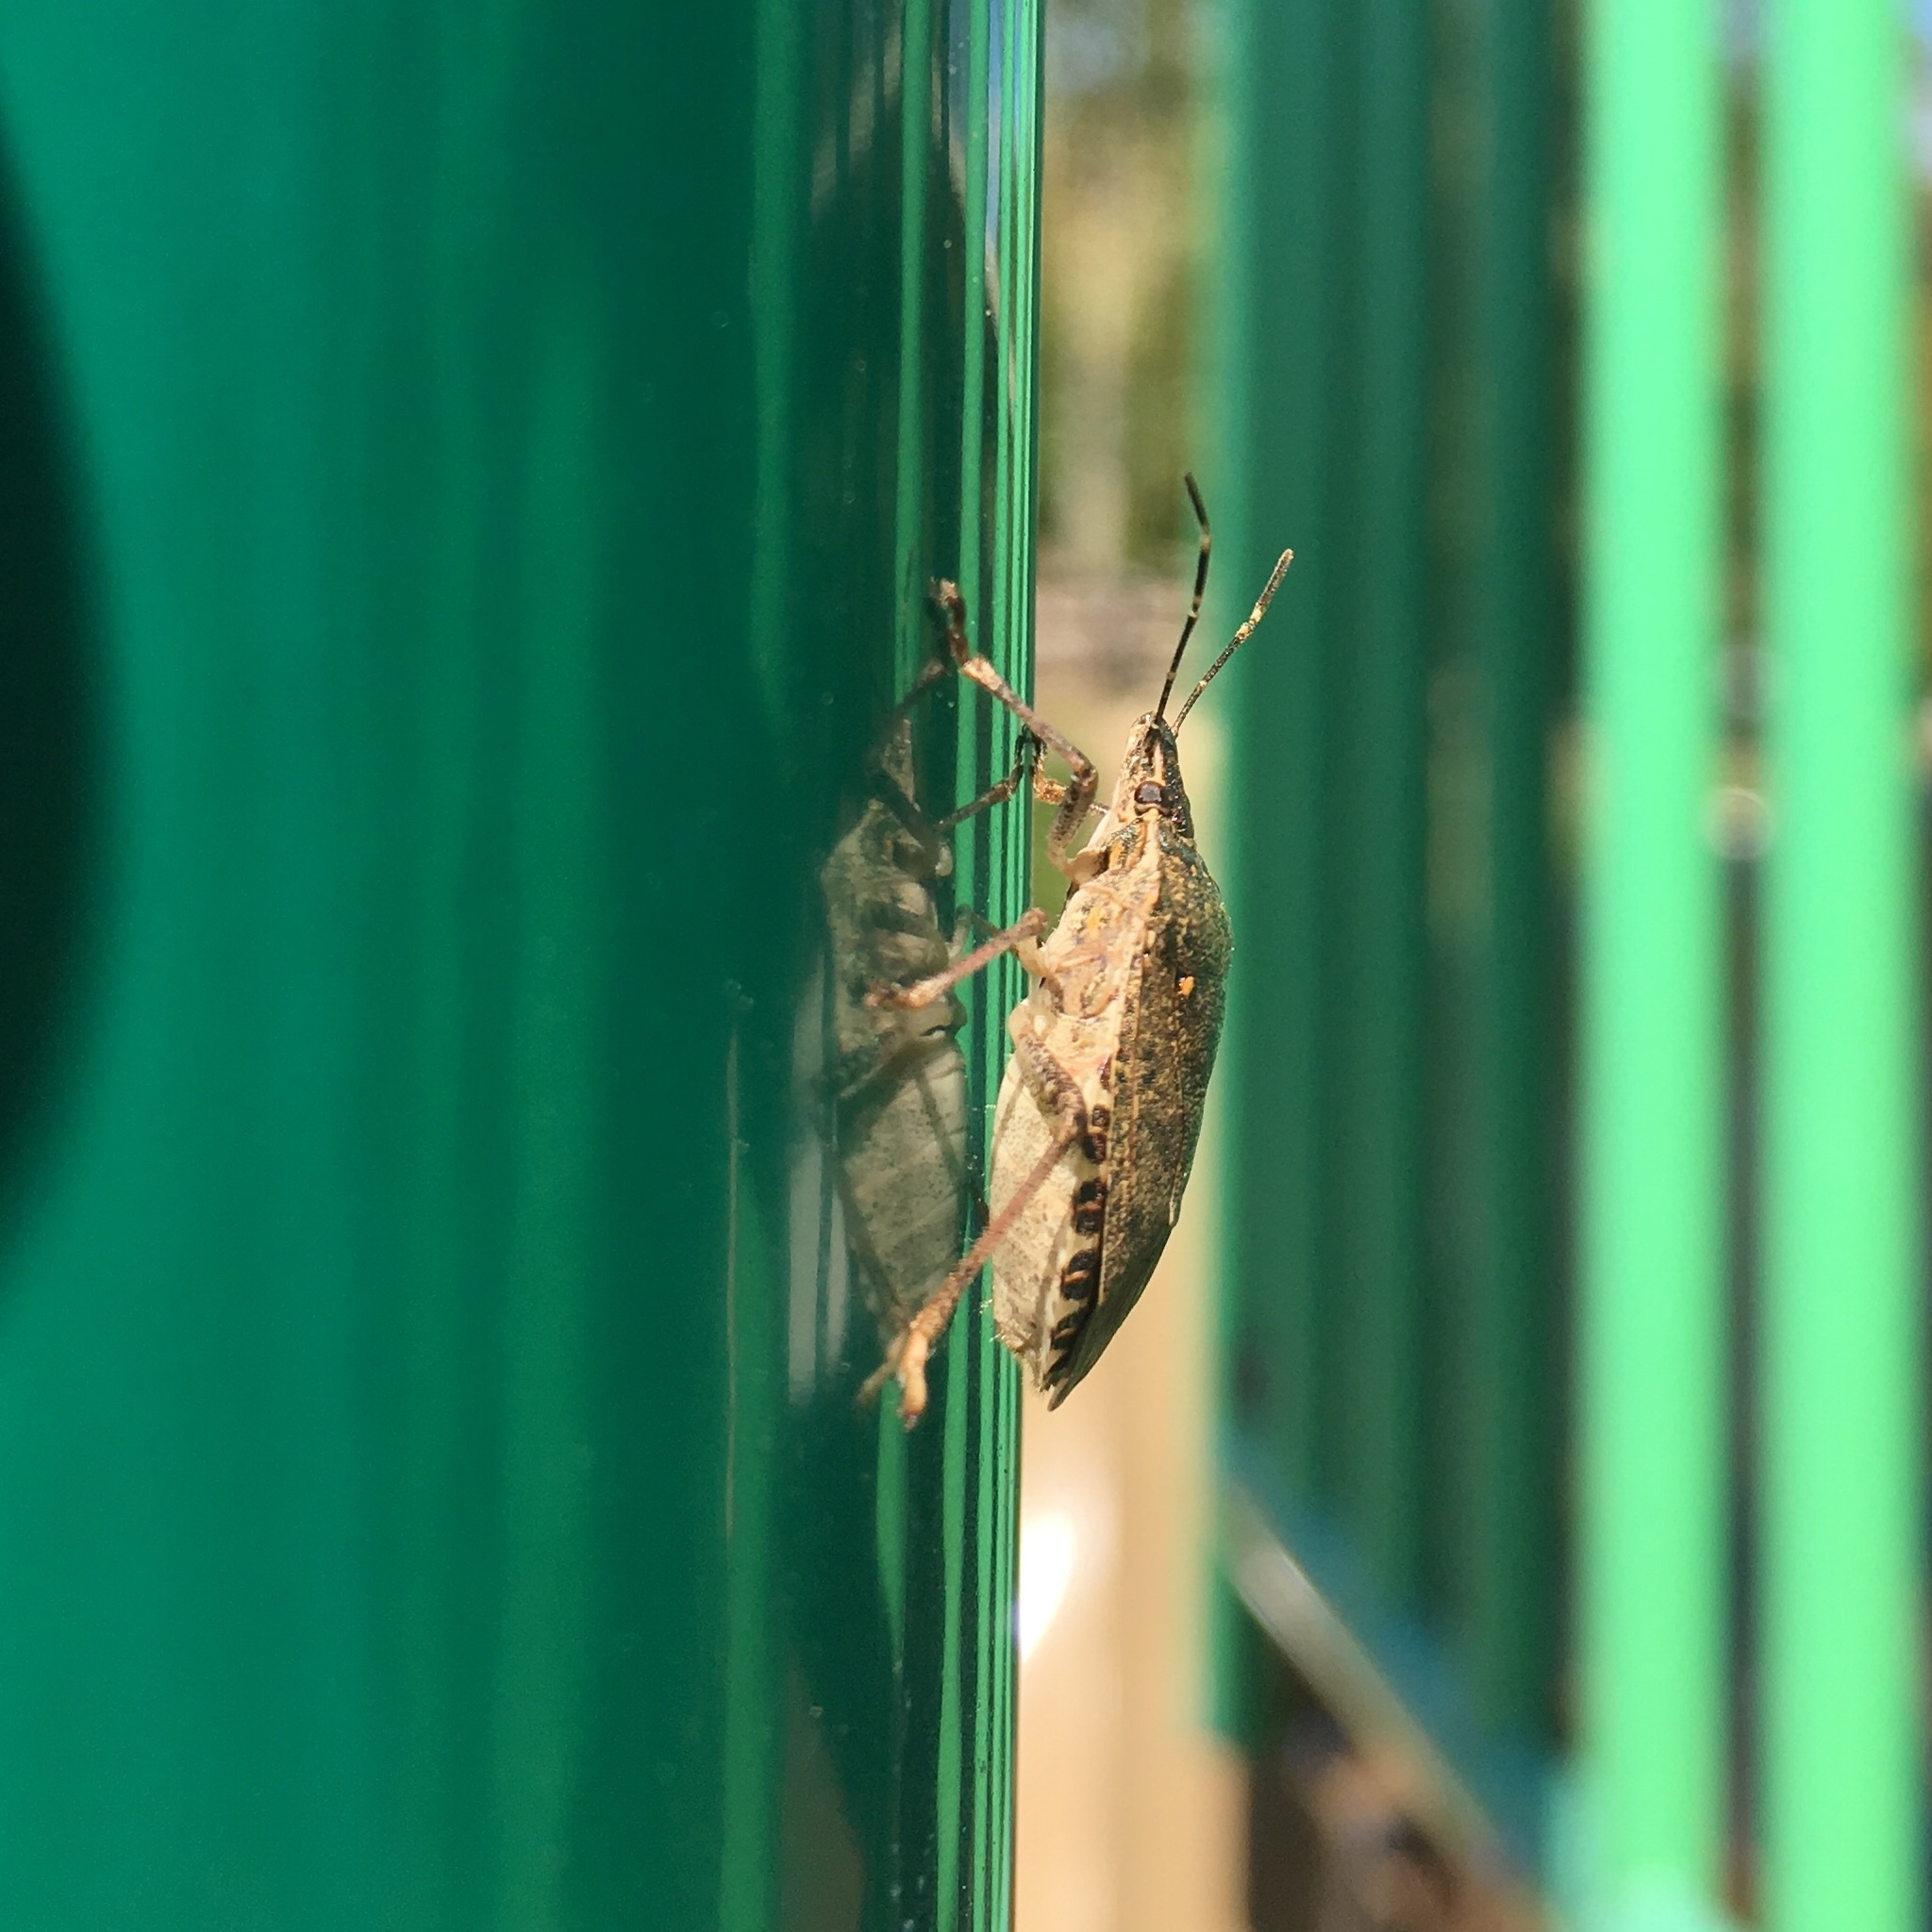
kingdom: Animalia
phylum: Arthropoda
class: Insecta
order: Hemiptera
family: Pentatomidae
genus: Halyomorpha
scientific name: Halyomorpha halys
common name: Brown marmorated stink bug
